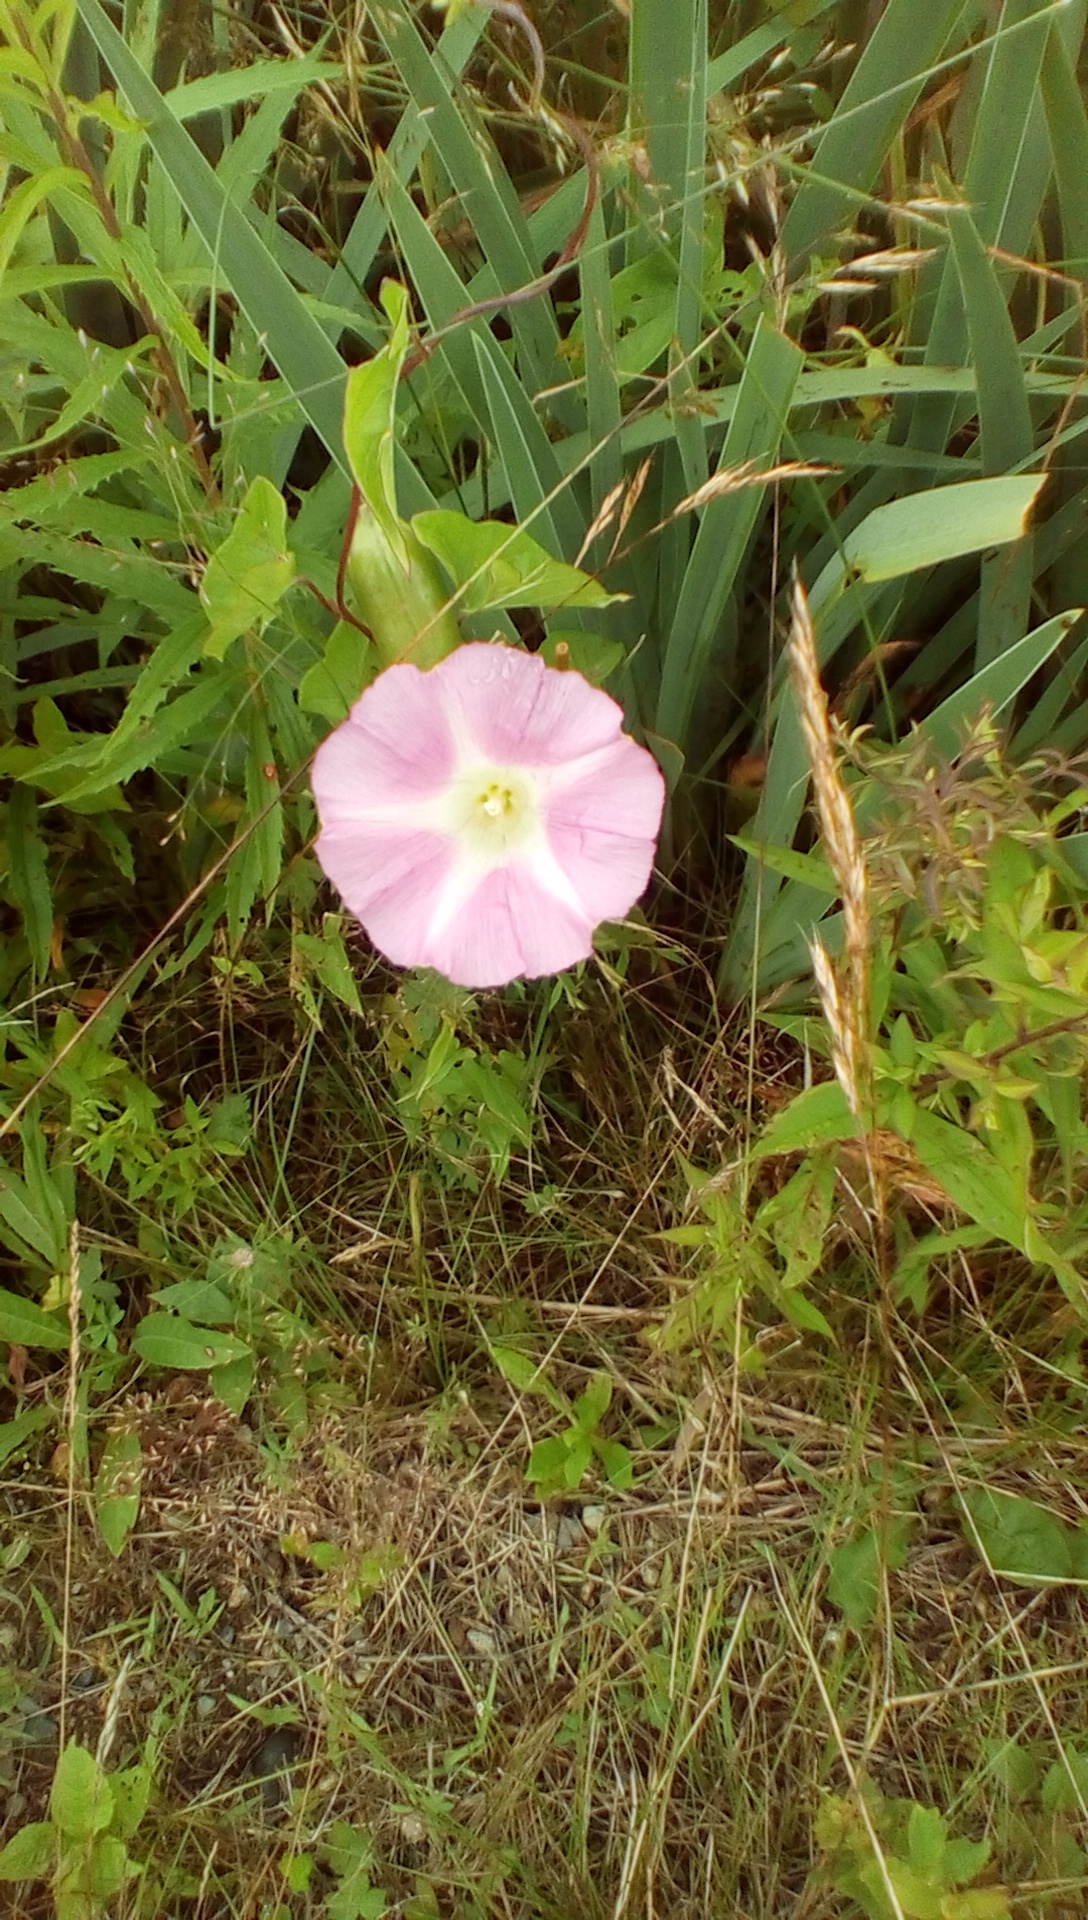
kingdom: Plantae
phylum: Tracheophyta
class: Magnoliopsida
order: Solanales
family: Convolvulaceae
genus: Calystegia
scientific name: Calystegia sepium
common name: Hedge bindweed
